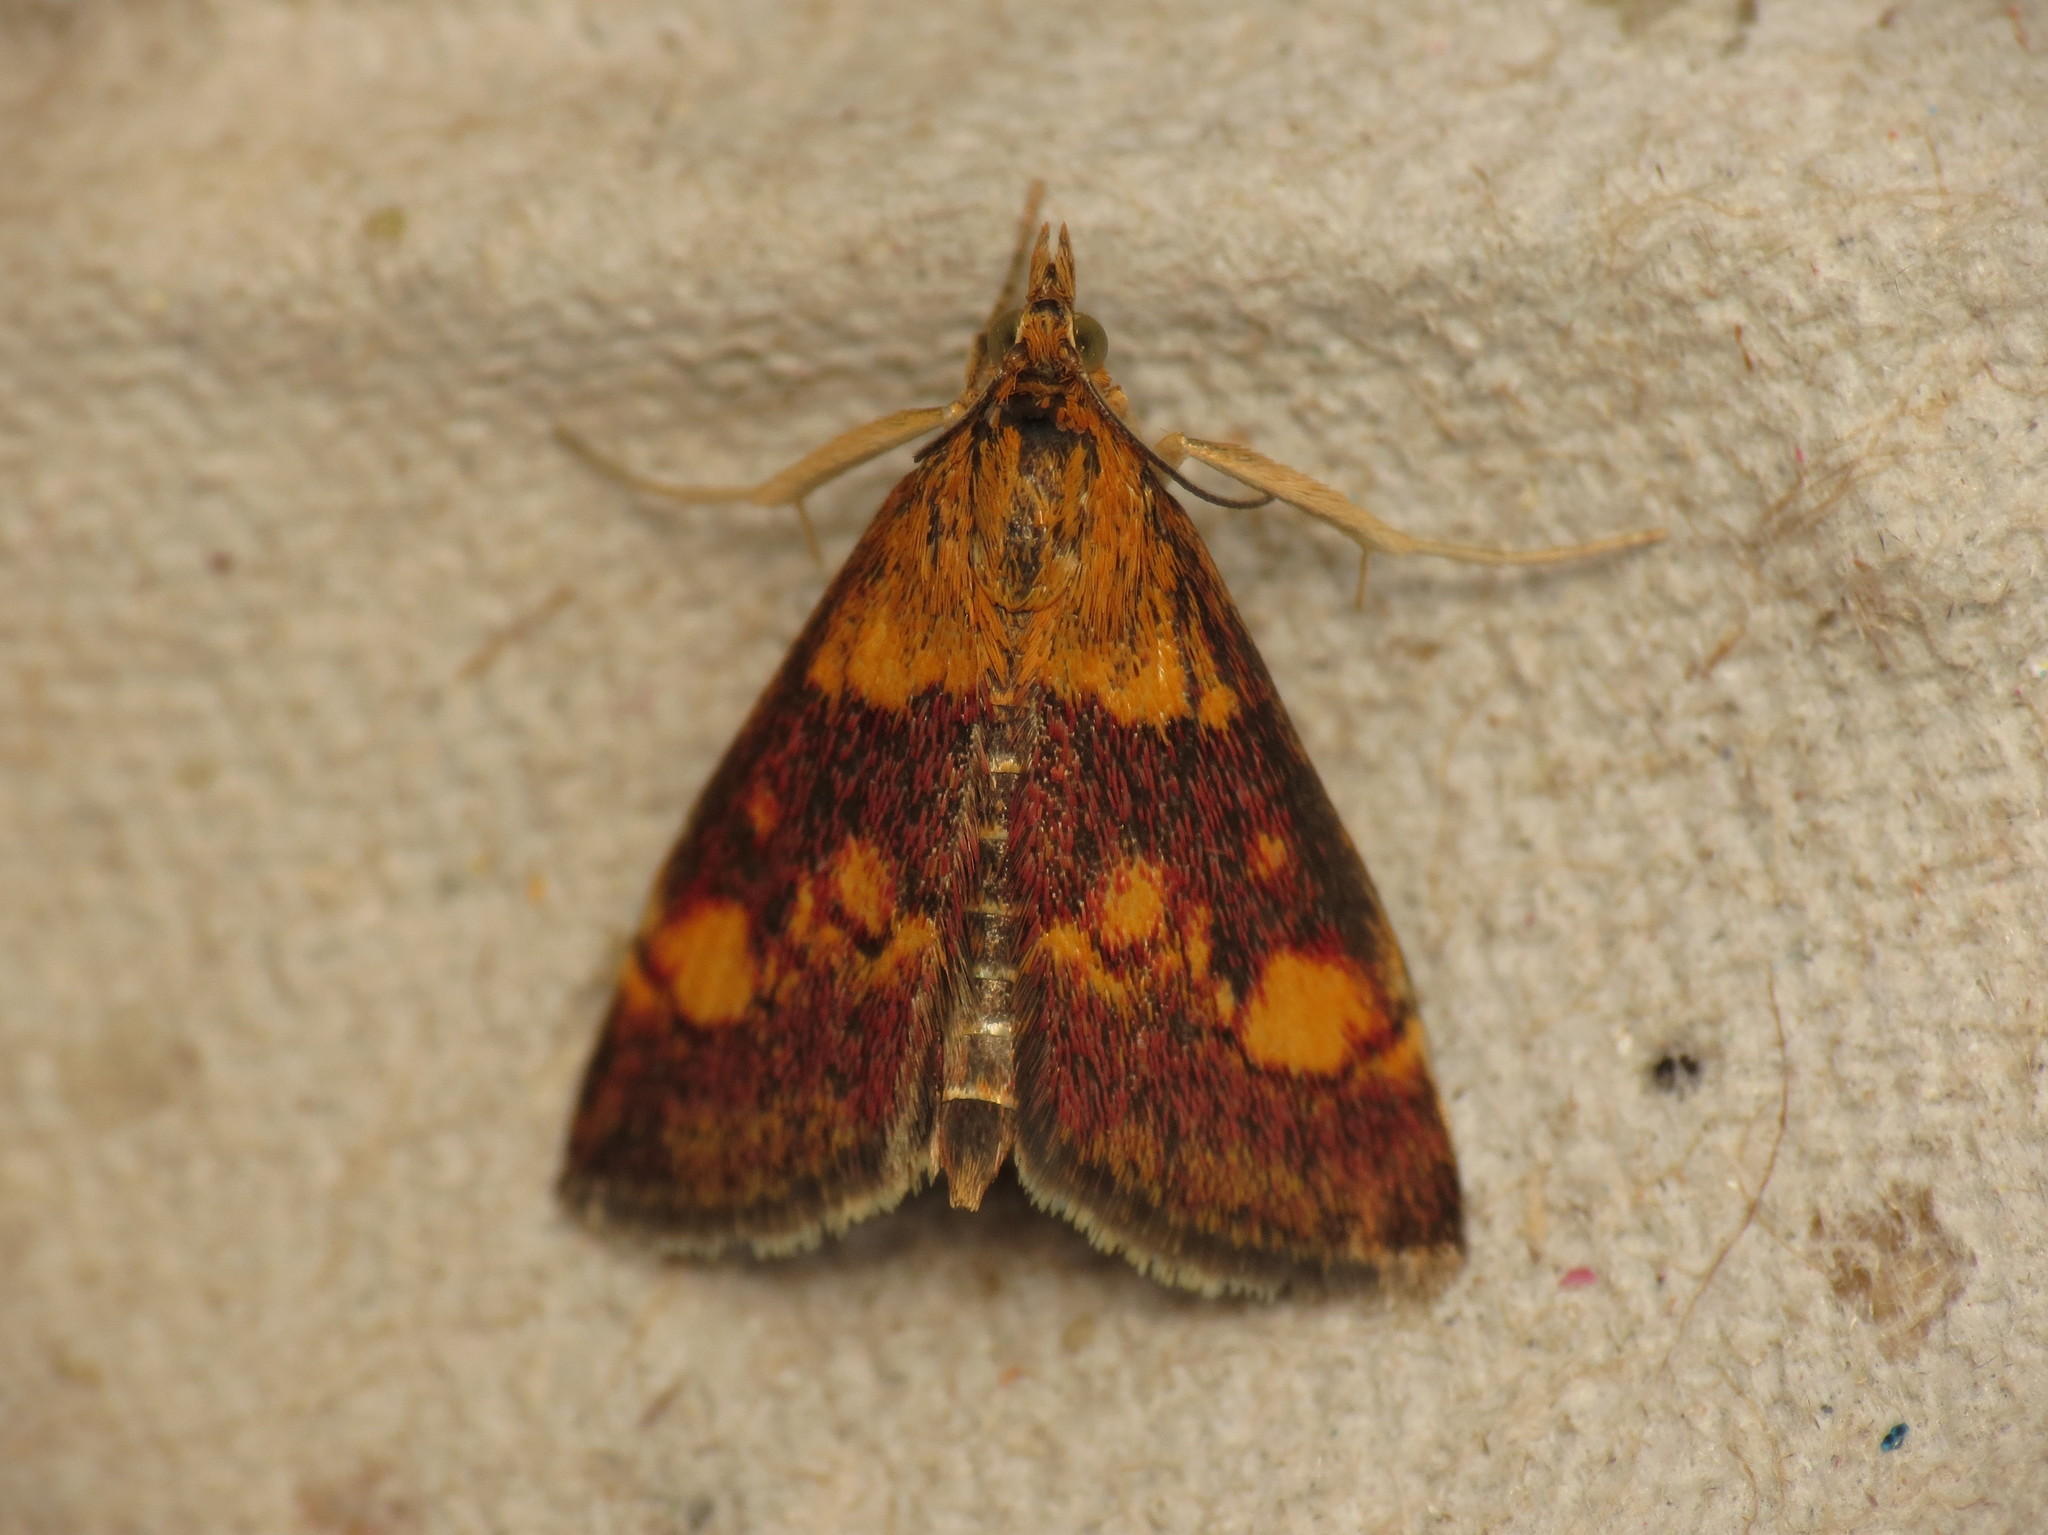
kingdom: Animalia
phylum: Arthropoda
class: Insecta
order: Lepidoptera
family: Crambidae
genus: Pyrausta
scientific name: Pyrausta aurata
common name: Small purple & gold
